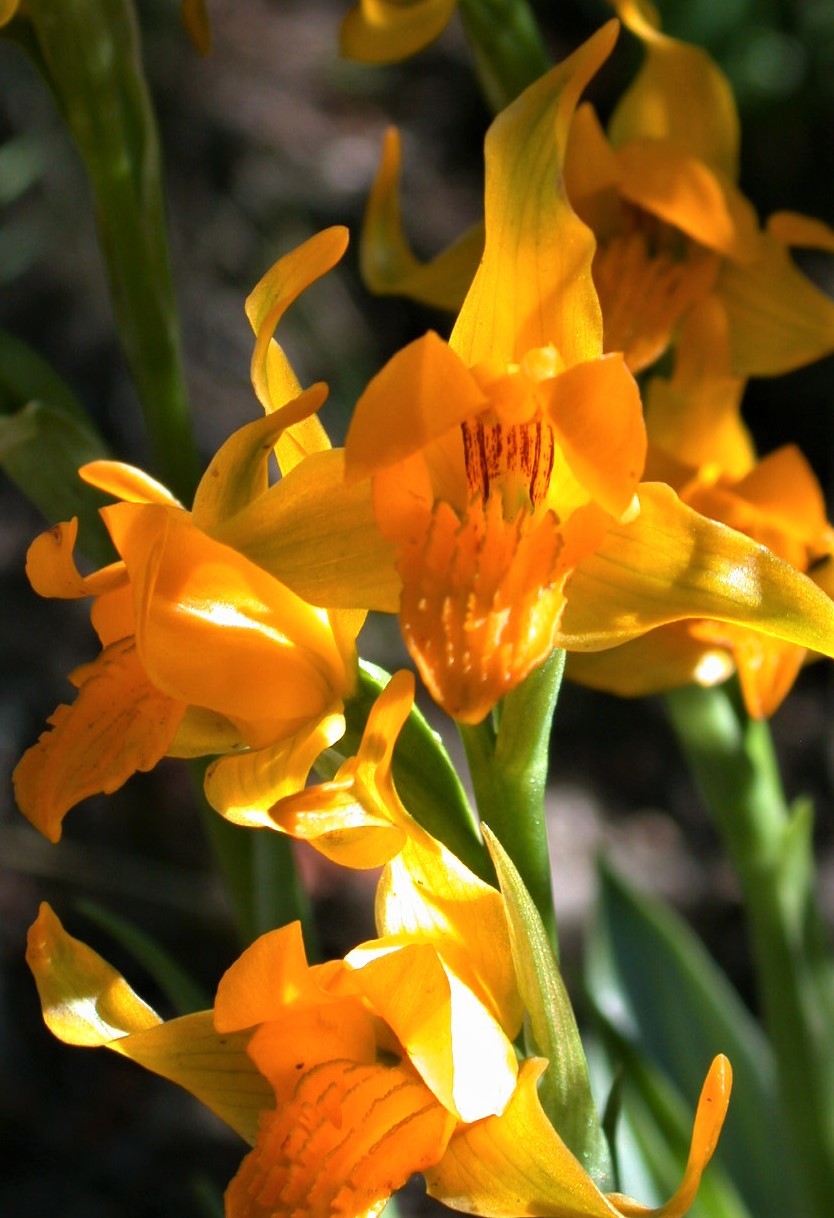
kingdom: Plantae
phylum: Tracheophyta
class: Liliopsida
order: Asparagales
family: Orchidaceae
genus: Chloraea
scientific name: Chloraea alpina
